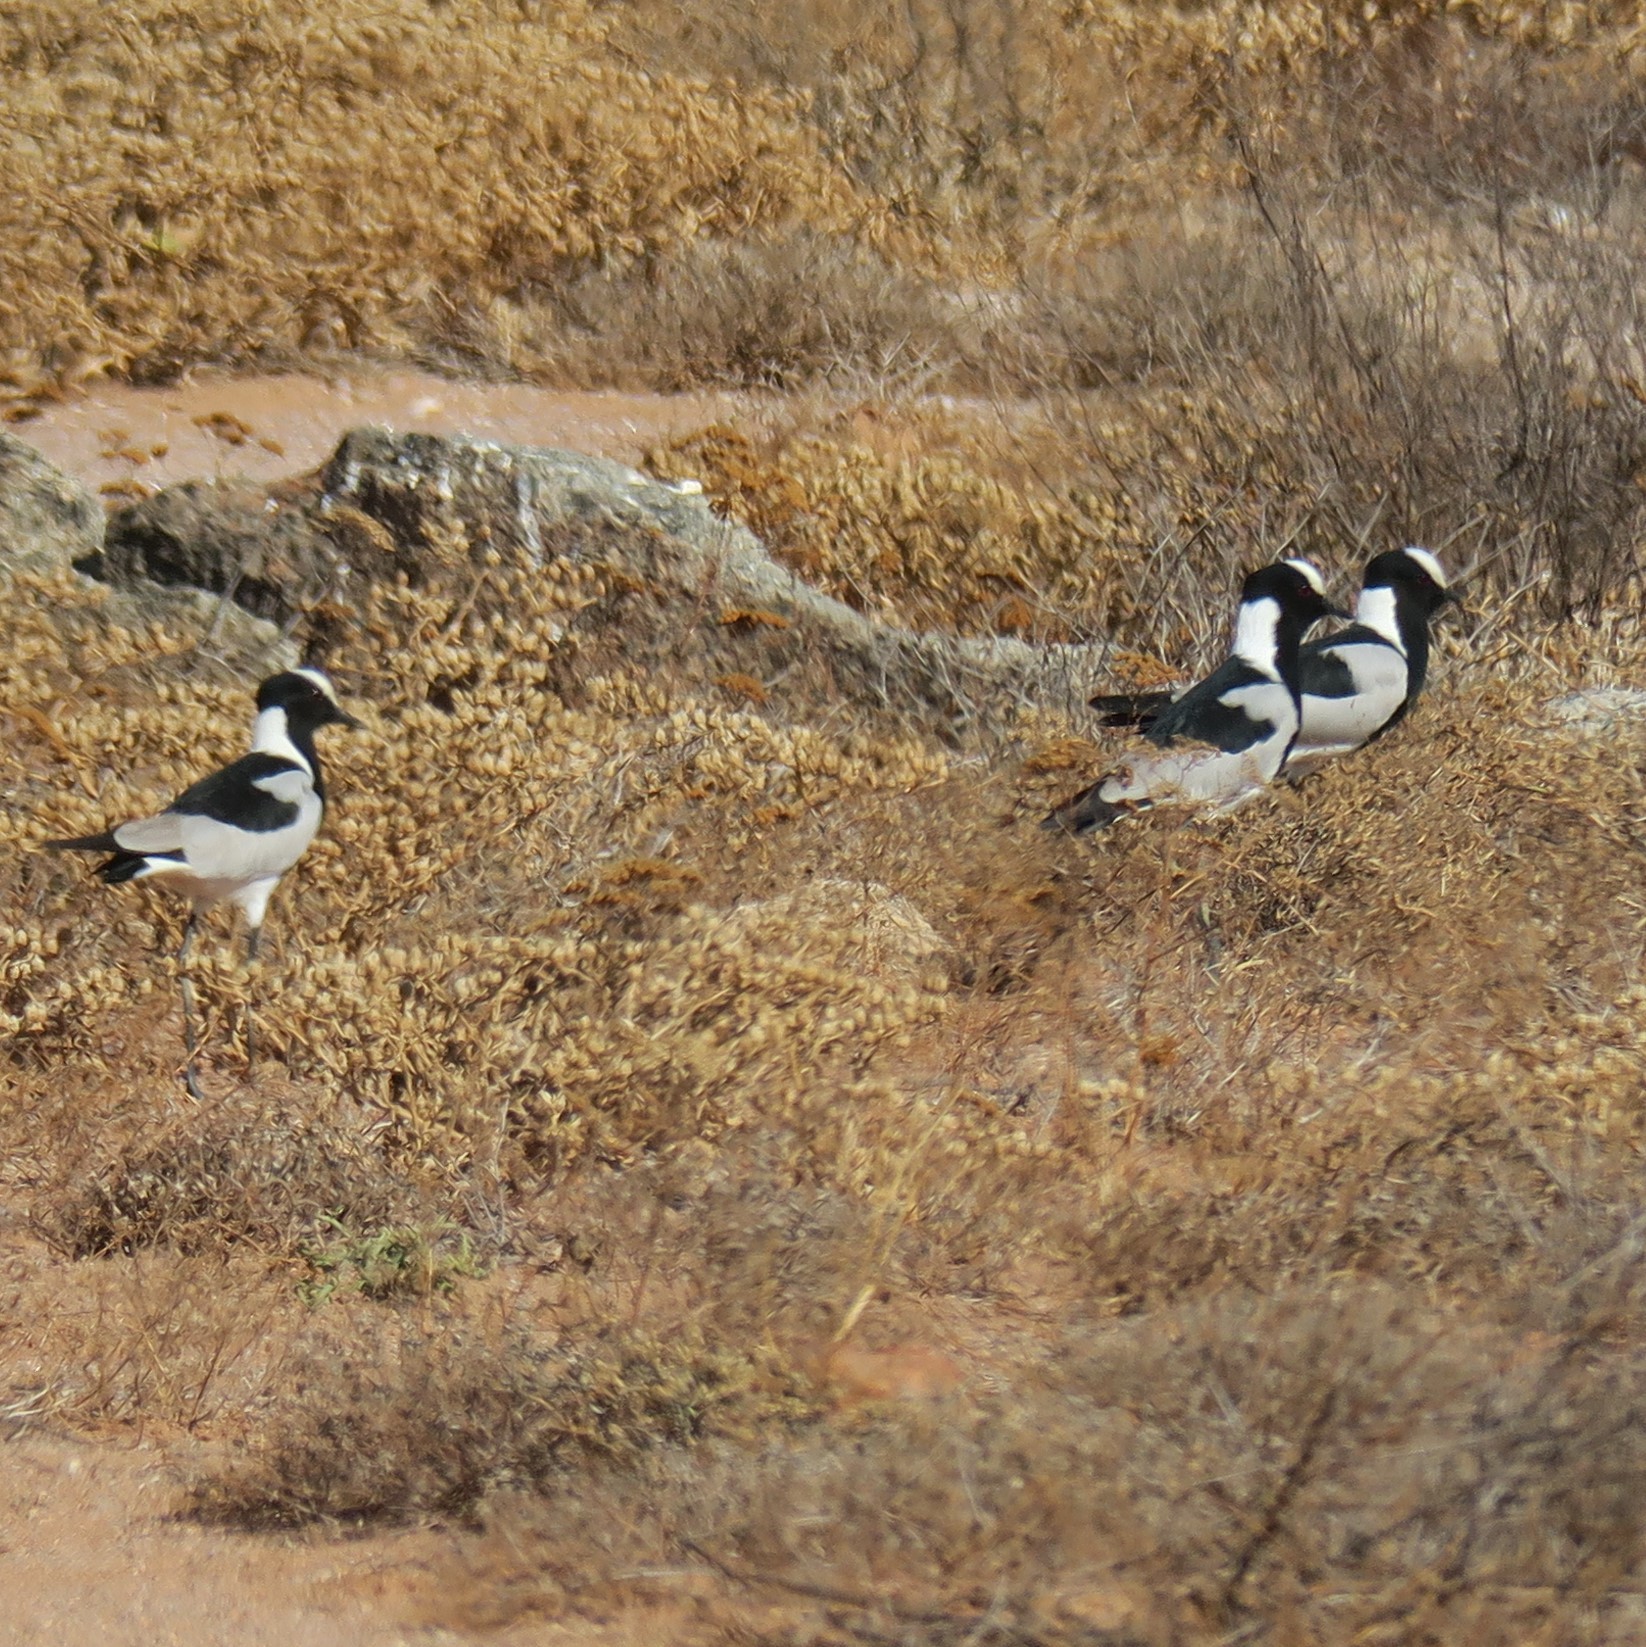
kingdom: Animalia
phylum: Chordata
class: Aves
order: Charadriiformes
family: Charadriidae
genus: Vanellus
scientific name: Vanellus armatus
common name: Blacksmith lapwing
